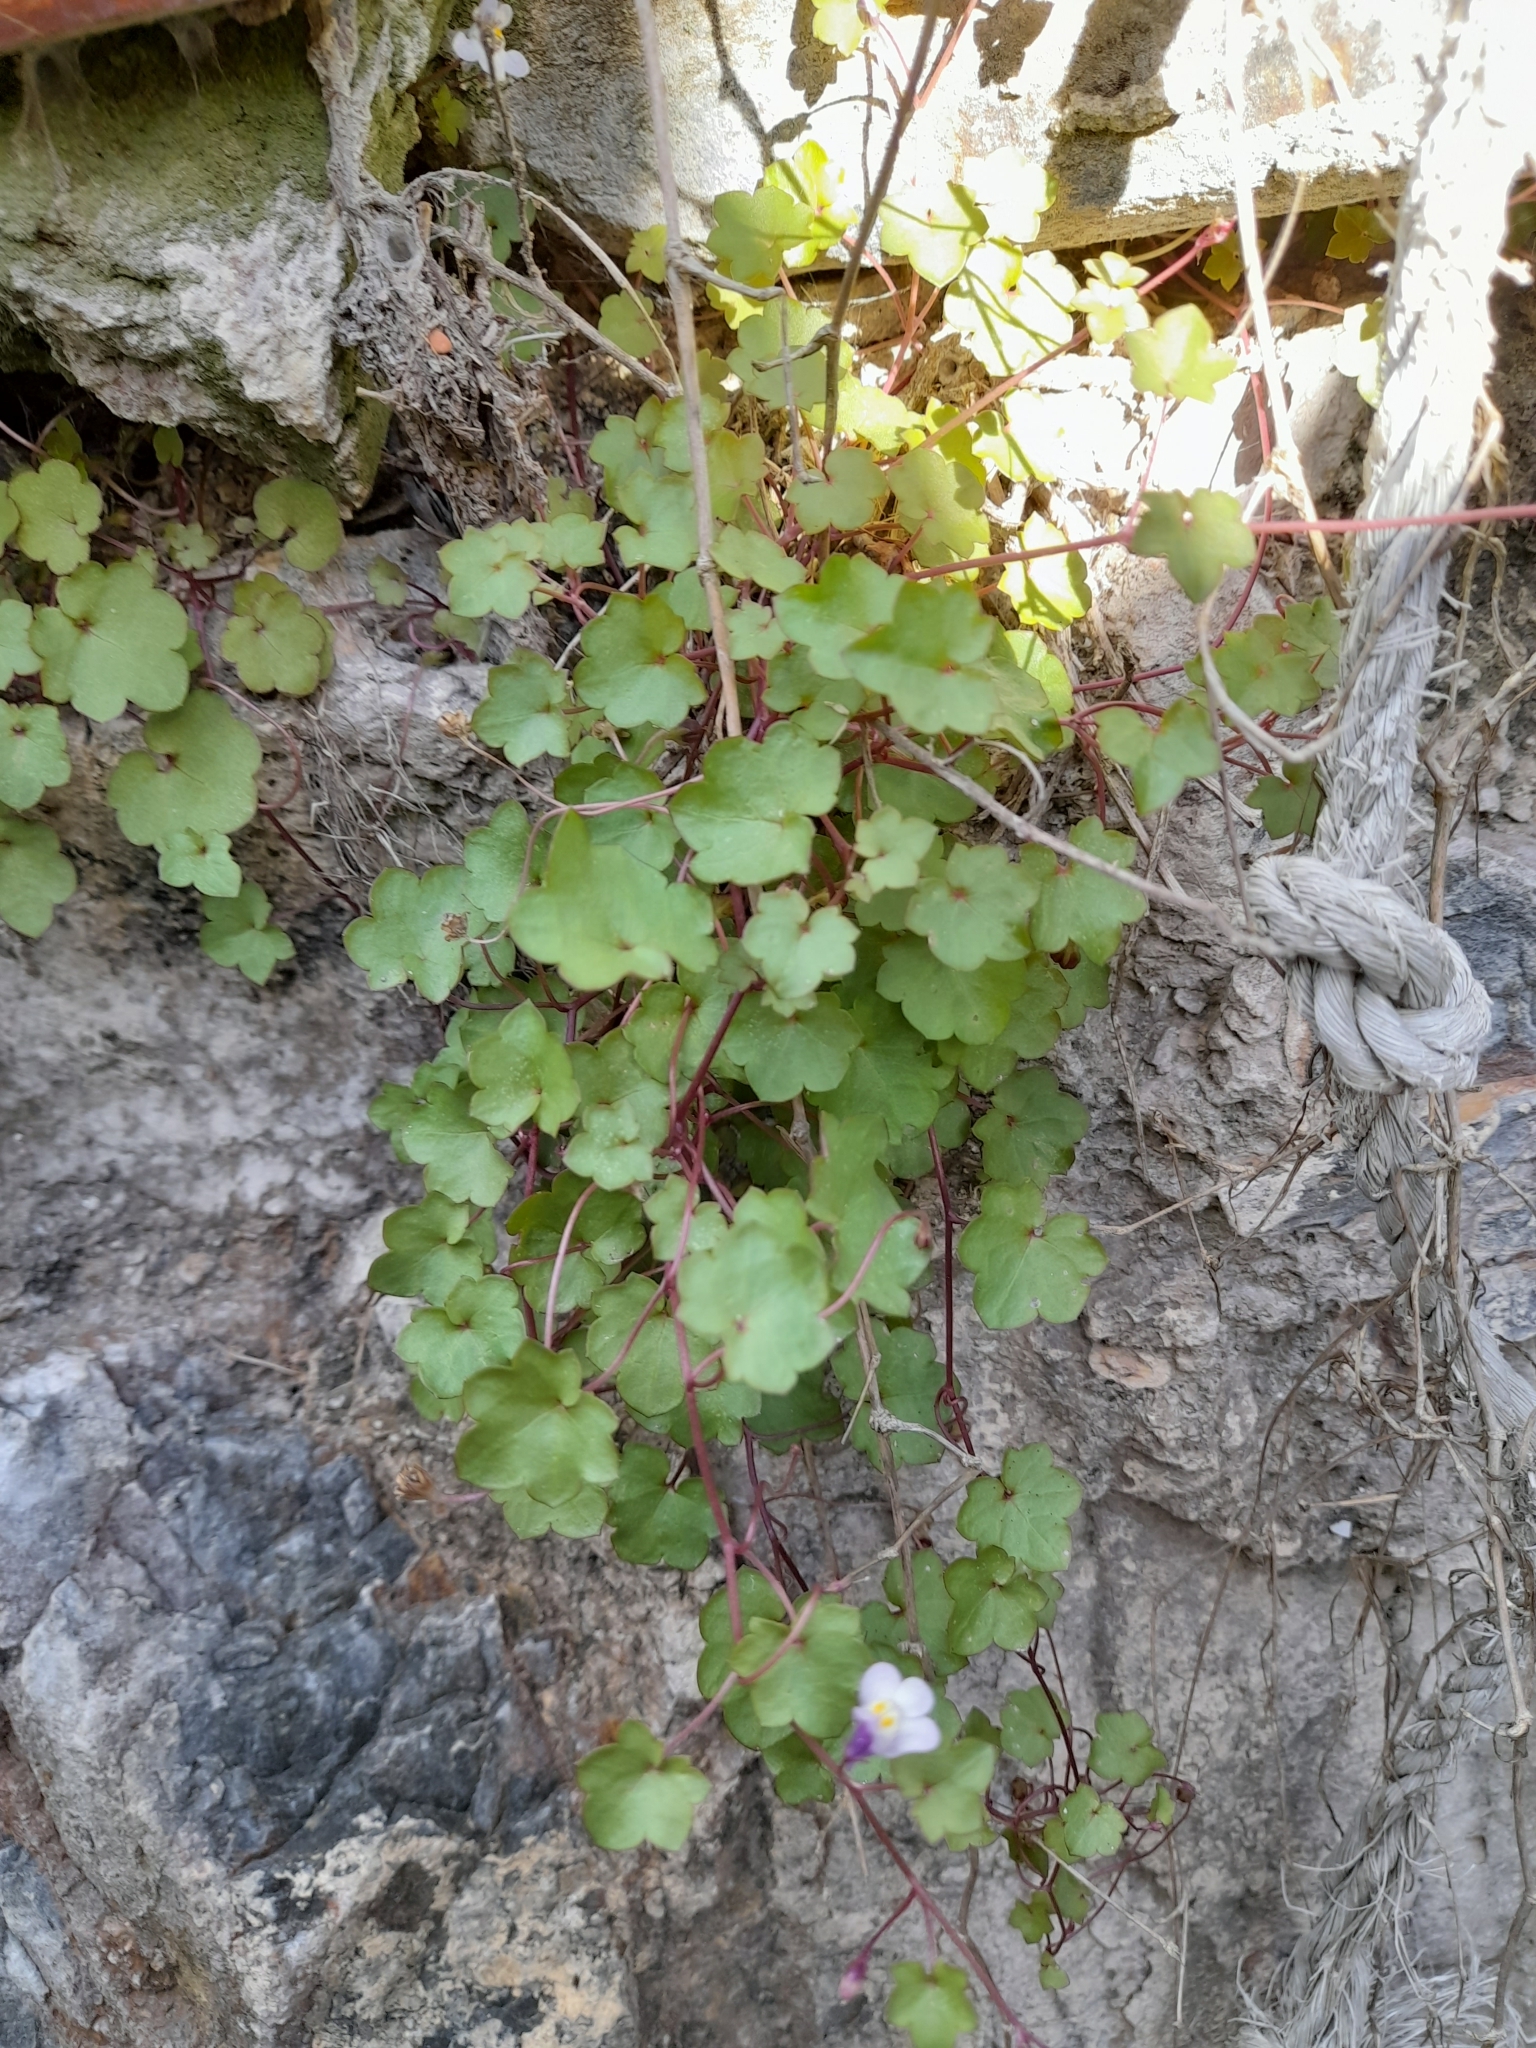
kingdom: Plantae
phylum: Tracheophyta
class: Magnoliopsida
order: Lamiales
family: Plantaginaceae
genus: Cymbalaria
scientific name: Cymbalaria muralis
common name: Ivy-leaved toadflax
